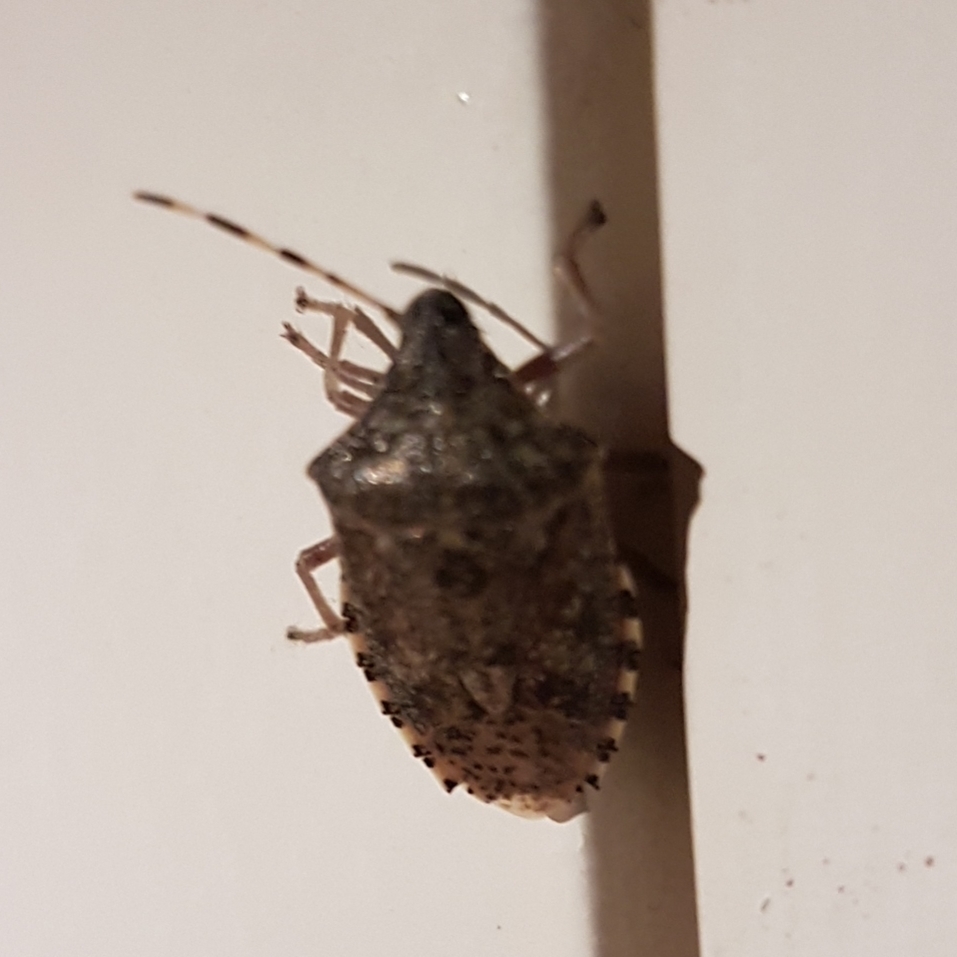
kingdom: Animalia
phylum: Arthropoda
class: Insecta
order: Hemiptera
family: Pentatomidae
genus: Rhaphigaster
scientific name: Rhaphigaster nebulosa
